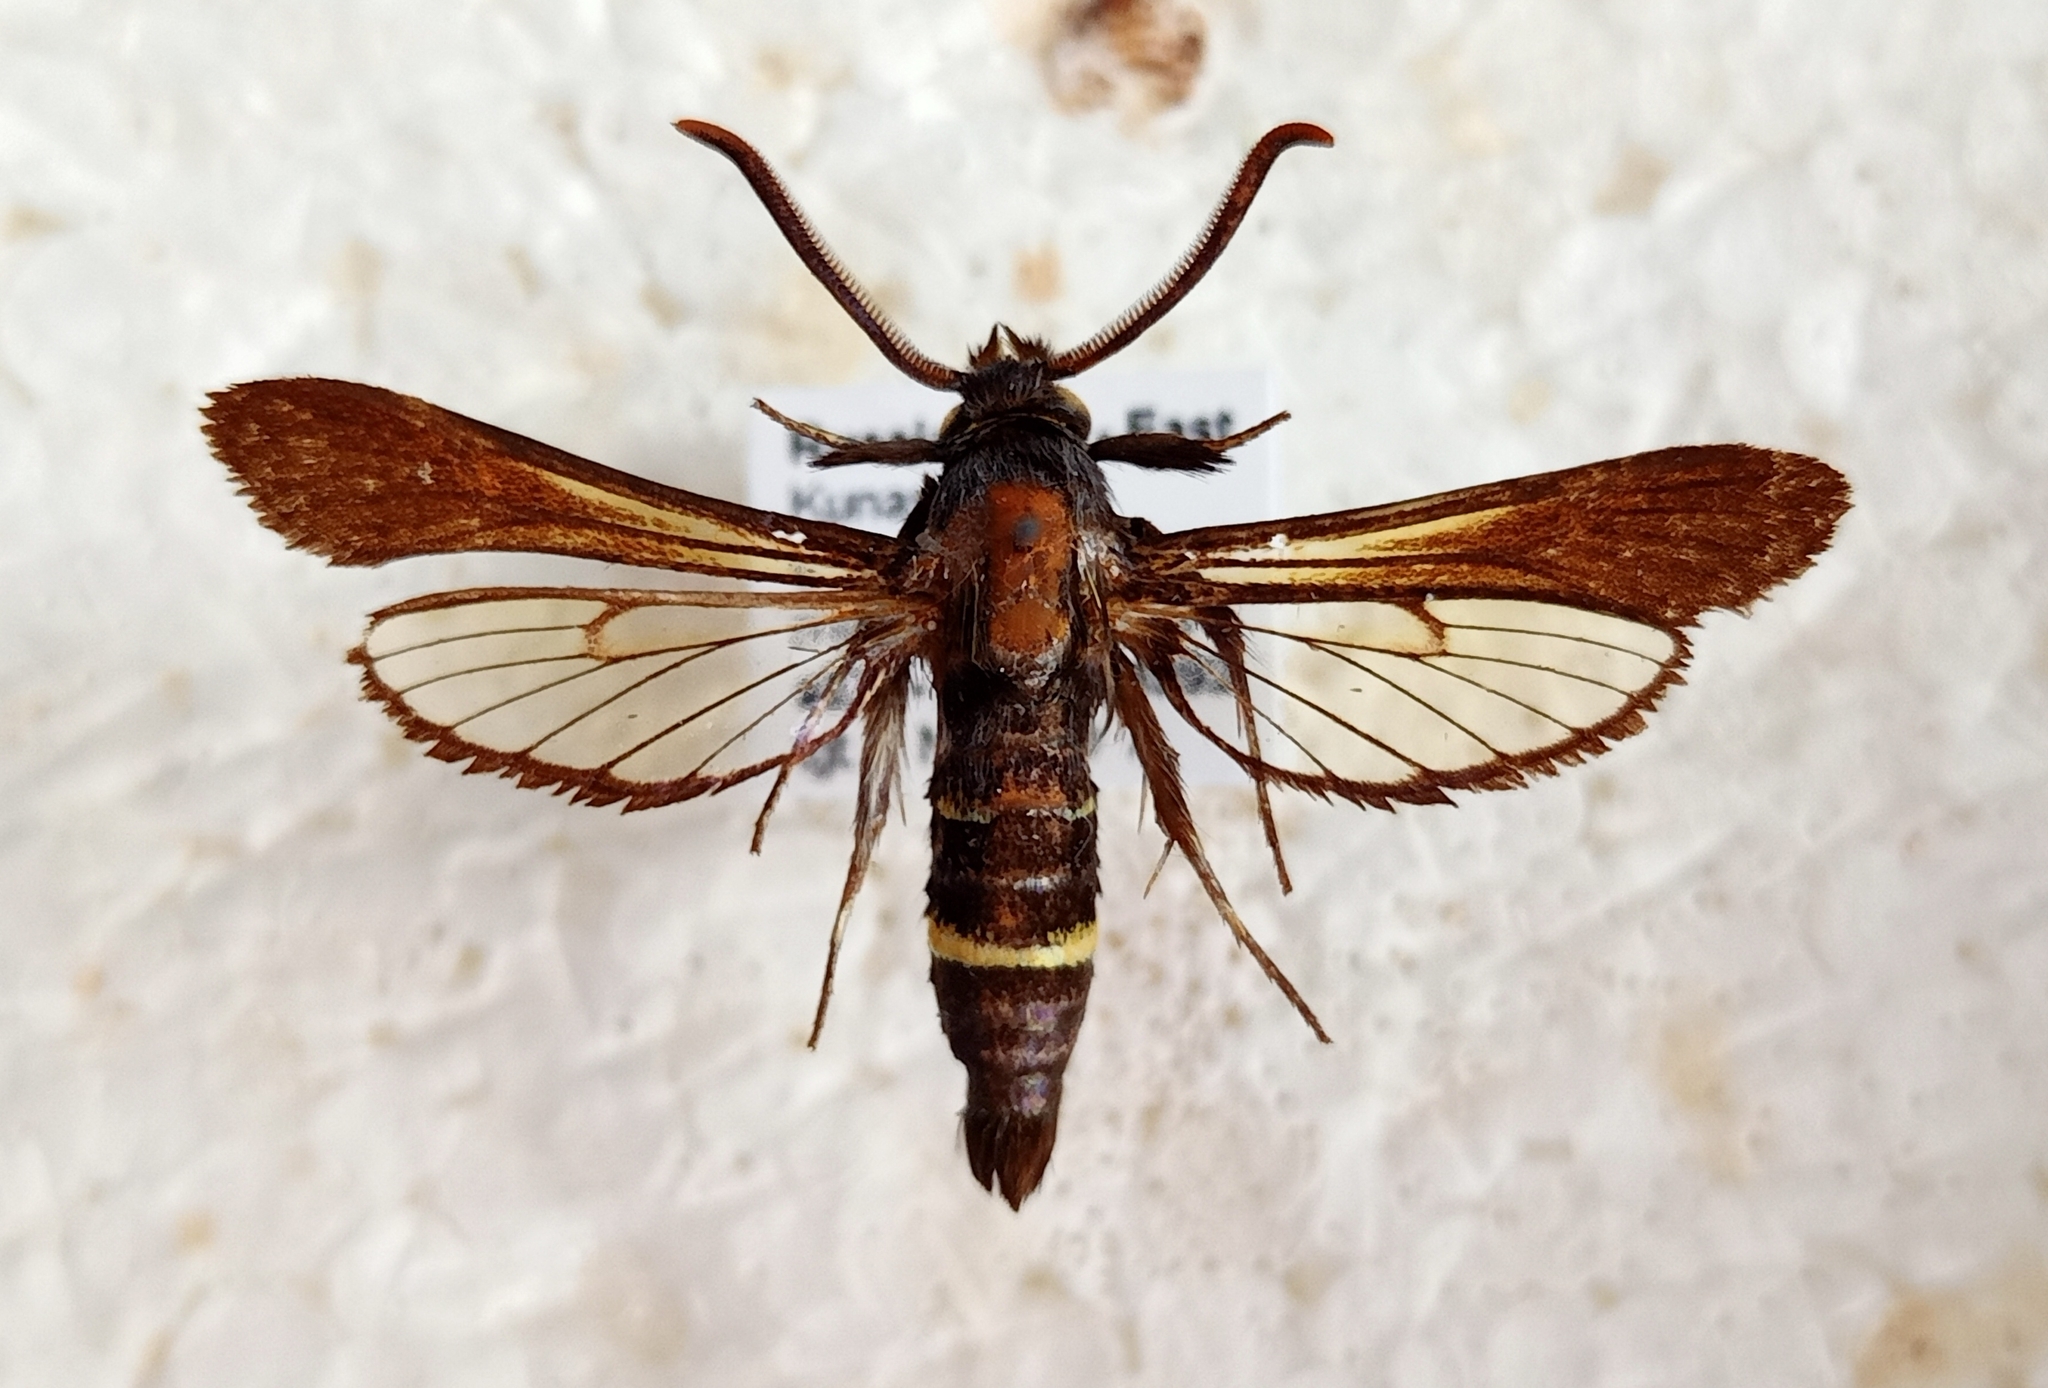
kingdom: Animalia
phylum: Arthropoda
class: Insecta
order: Lepidoptera
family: Sesiidae
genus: Nokona
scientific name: Nokona ferale
